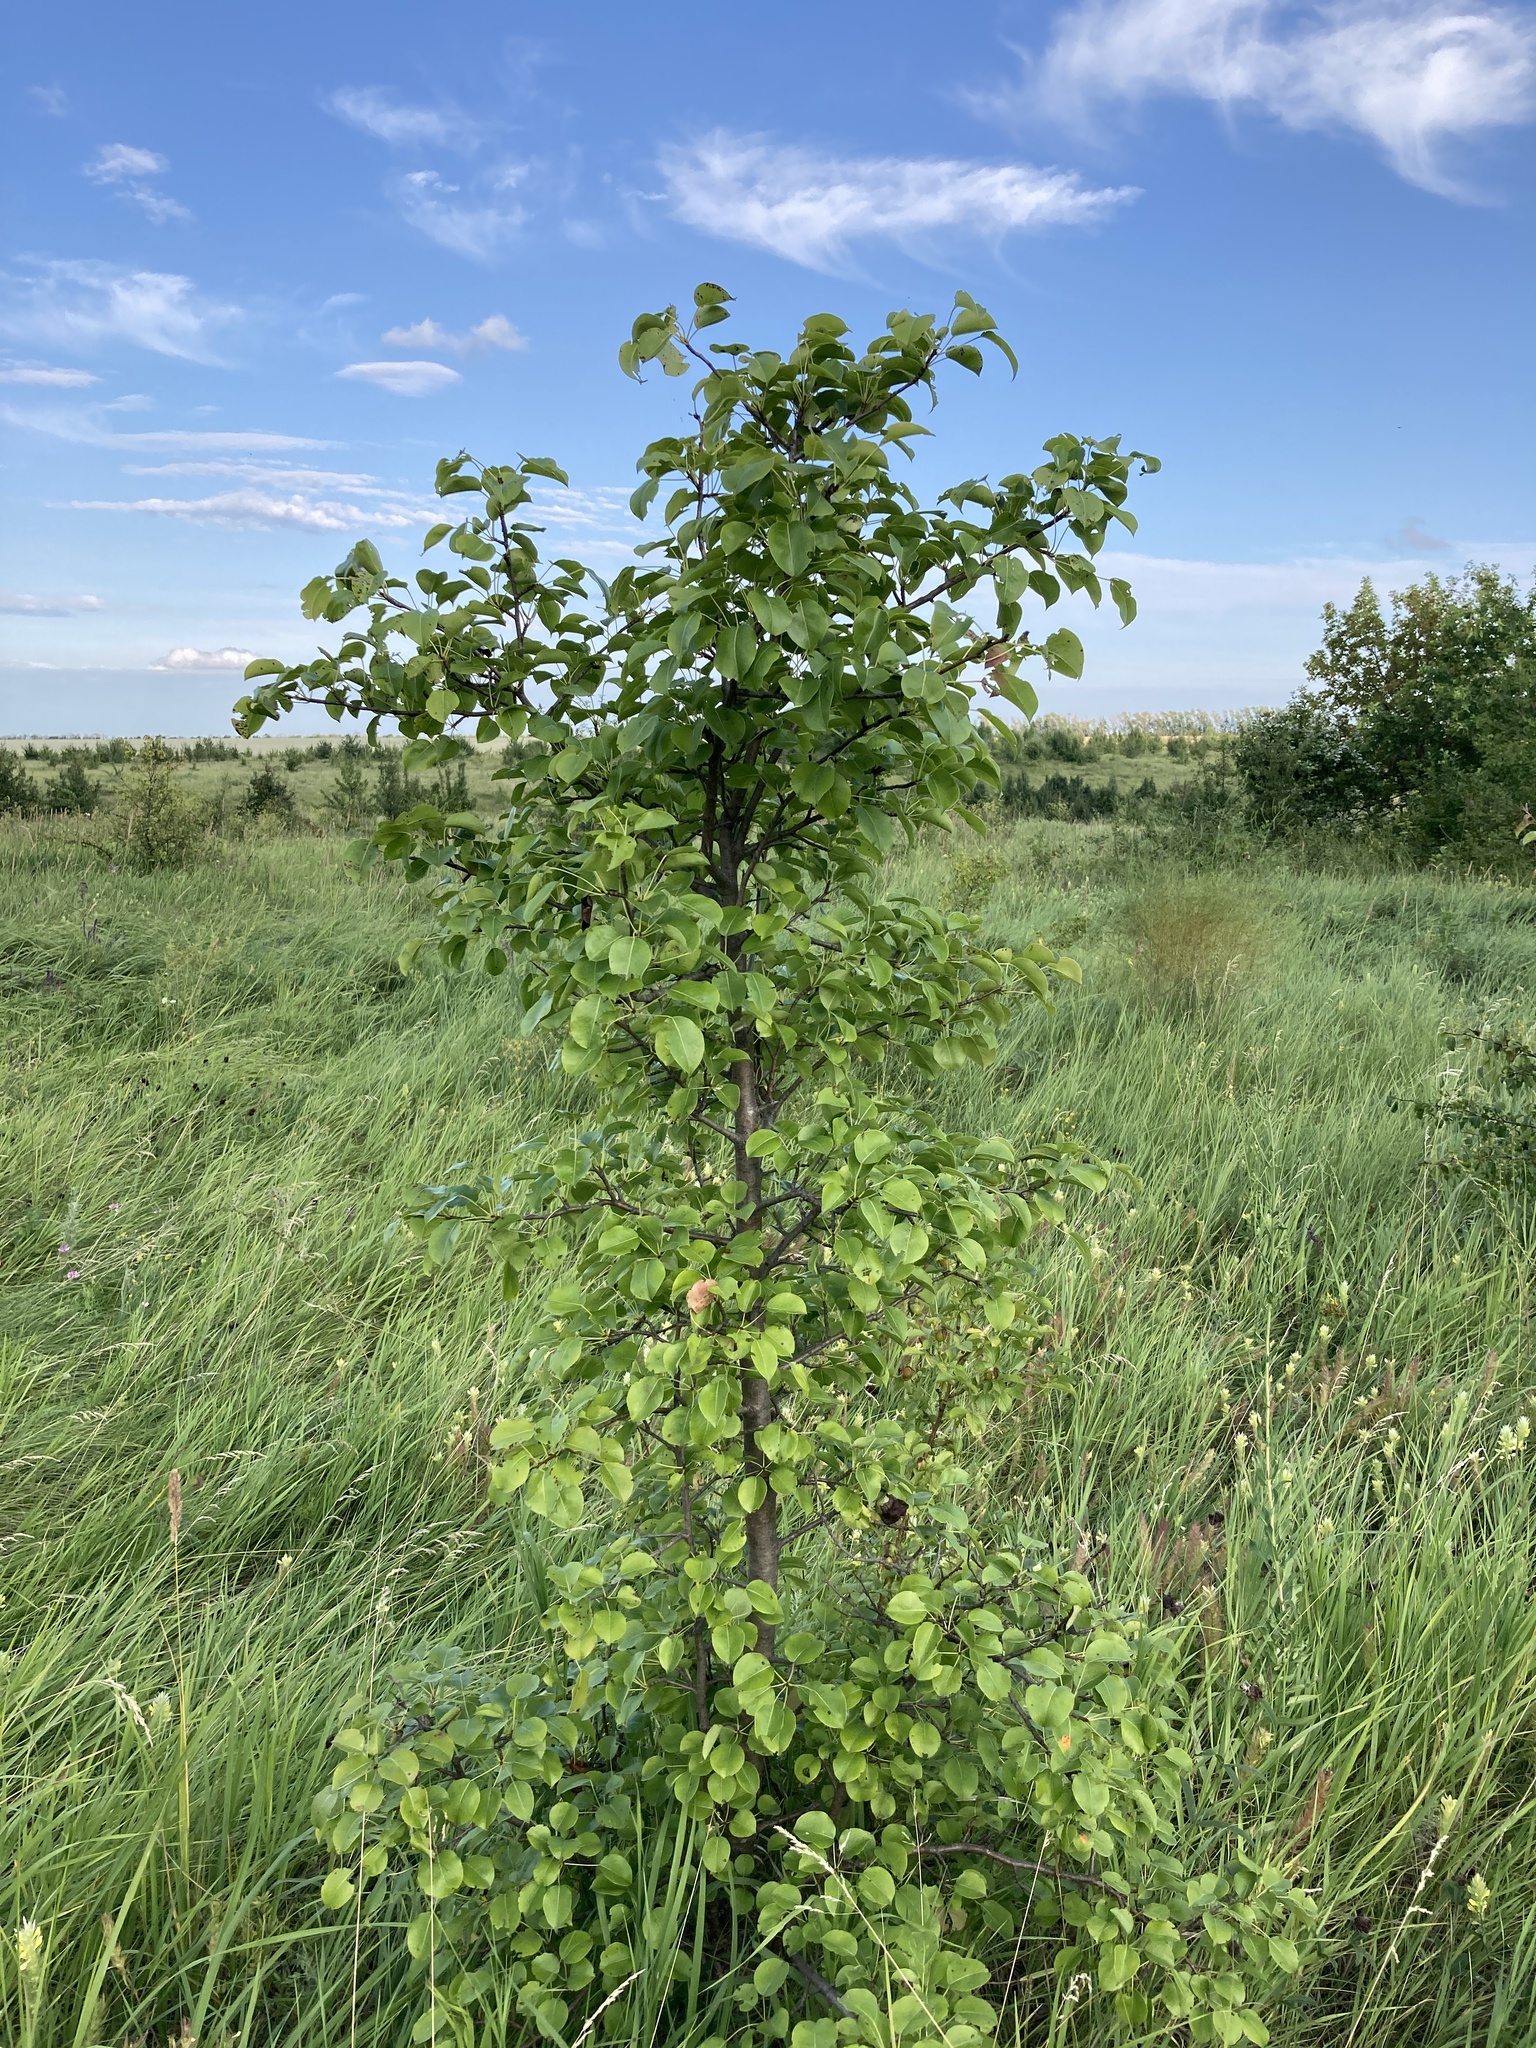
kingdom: Plantae
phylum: Tracheophyta
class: Magnoliopsida
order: Rosales
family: Rosaceae
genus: Pyrus
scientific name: Pyrus communis
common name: Pear
